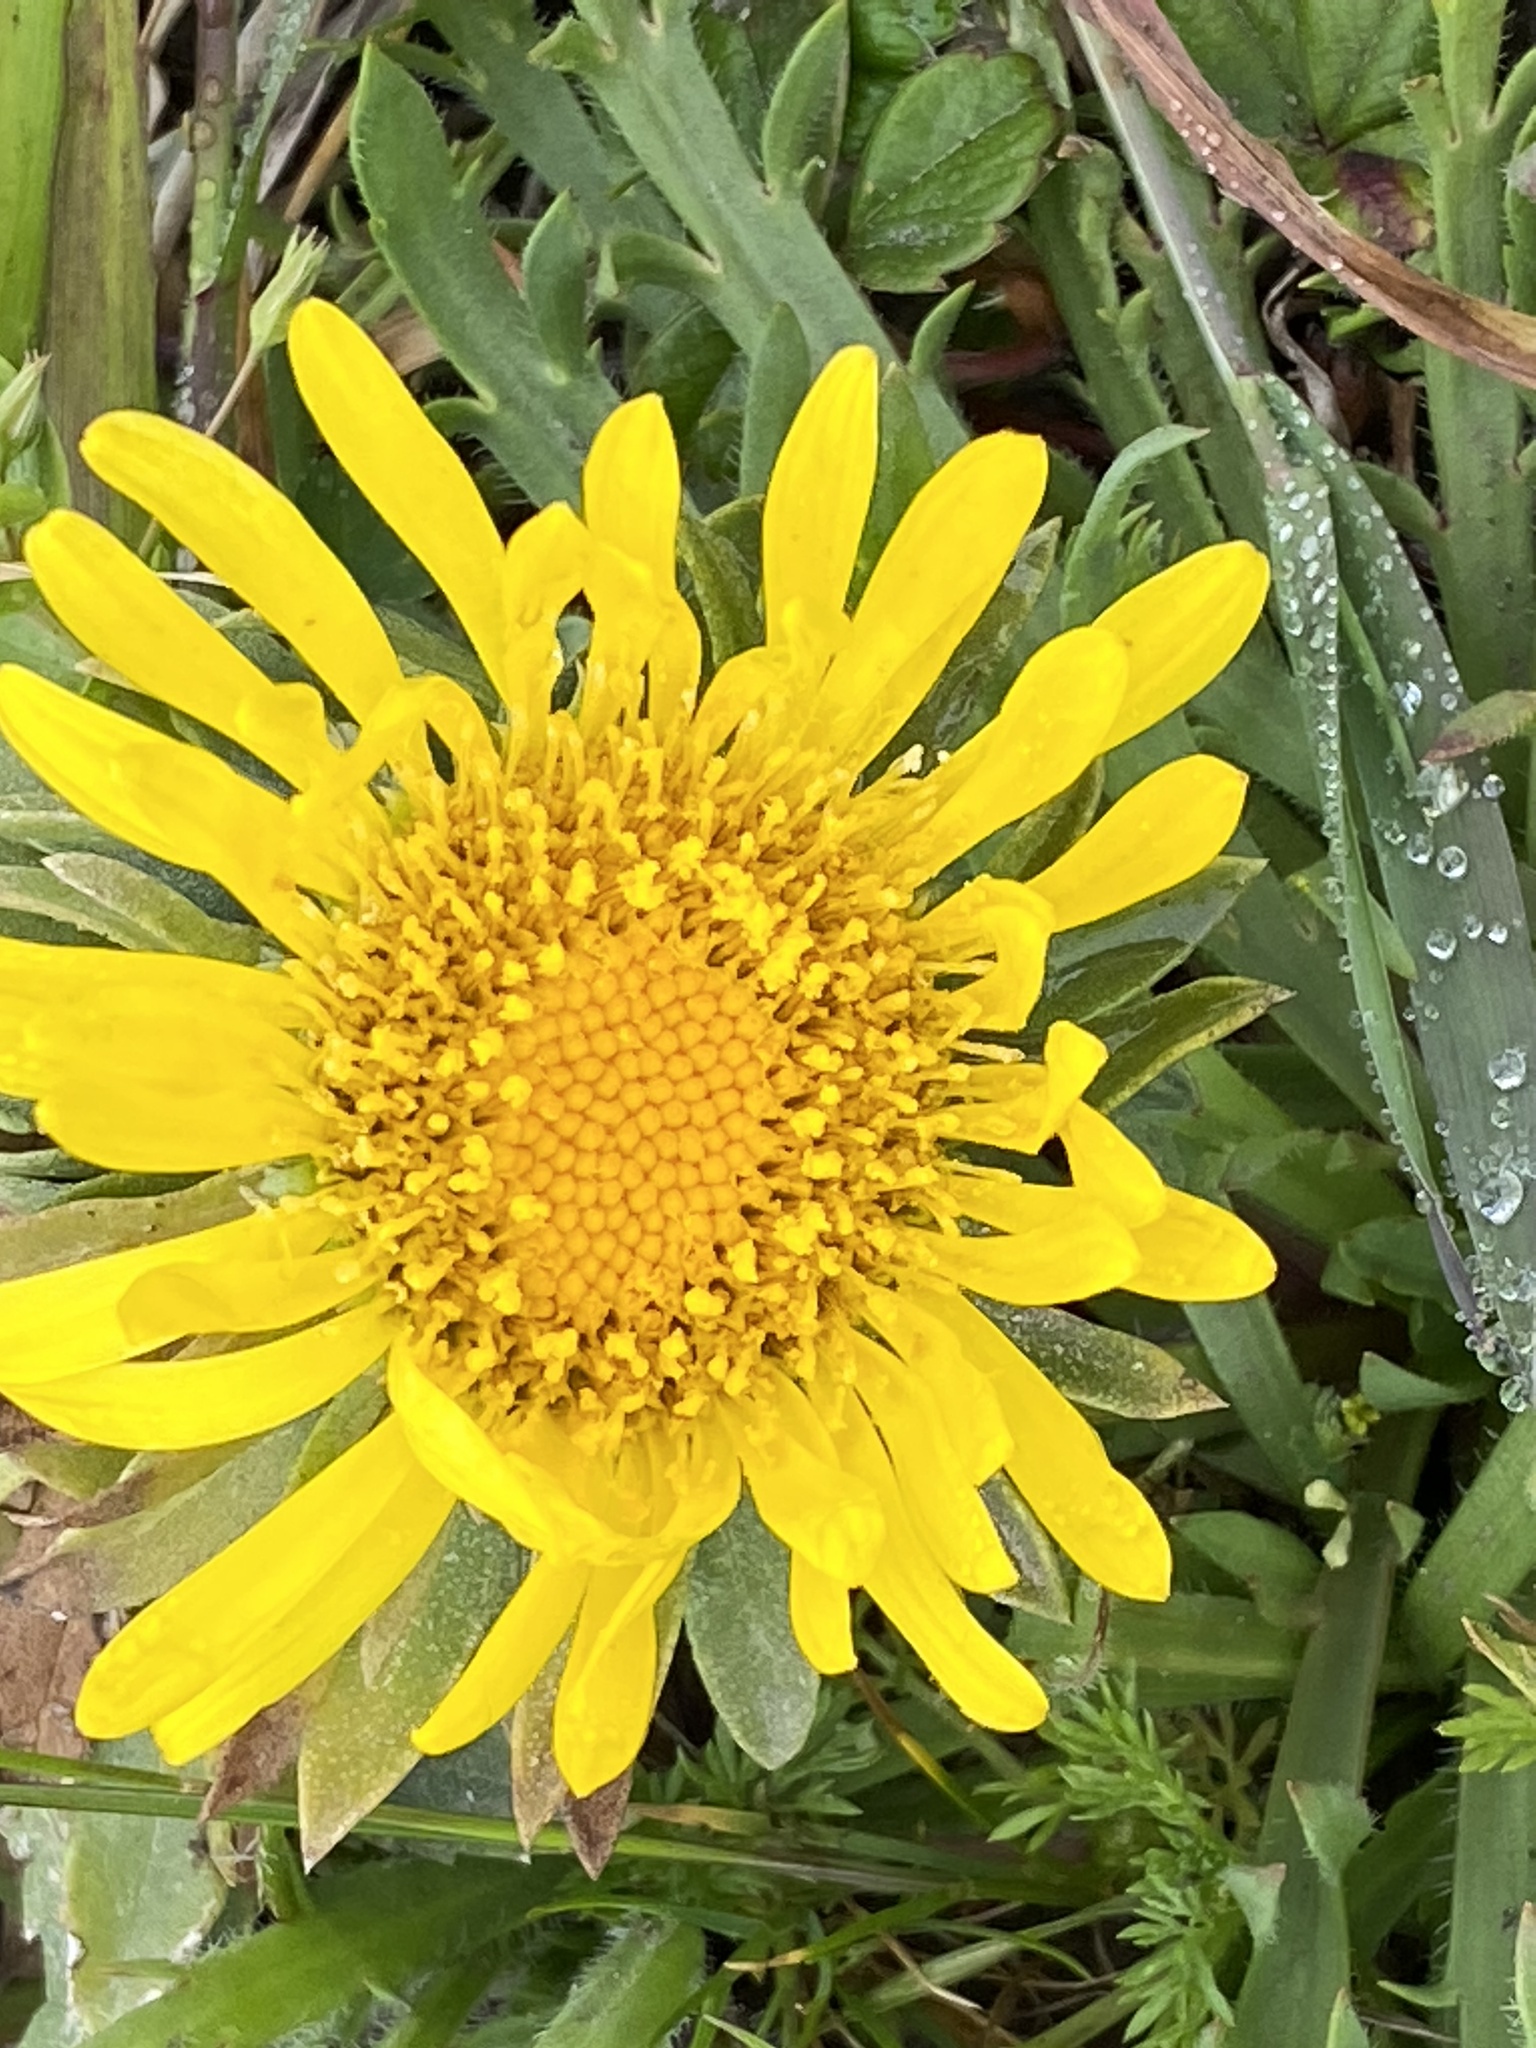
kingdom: Plantae
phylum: Tracheophyta
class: Magnoliopsida
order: Asterales
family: Asteraceae
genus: Grindelia
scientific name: Grindelia hirsutula
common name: Hairy gumweed
